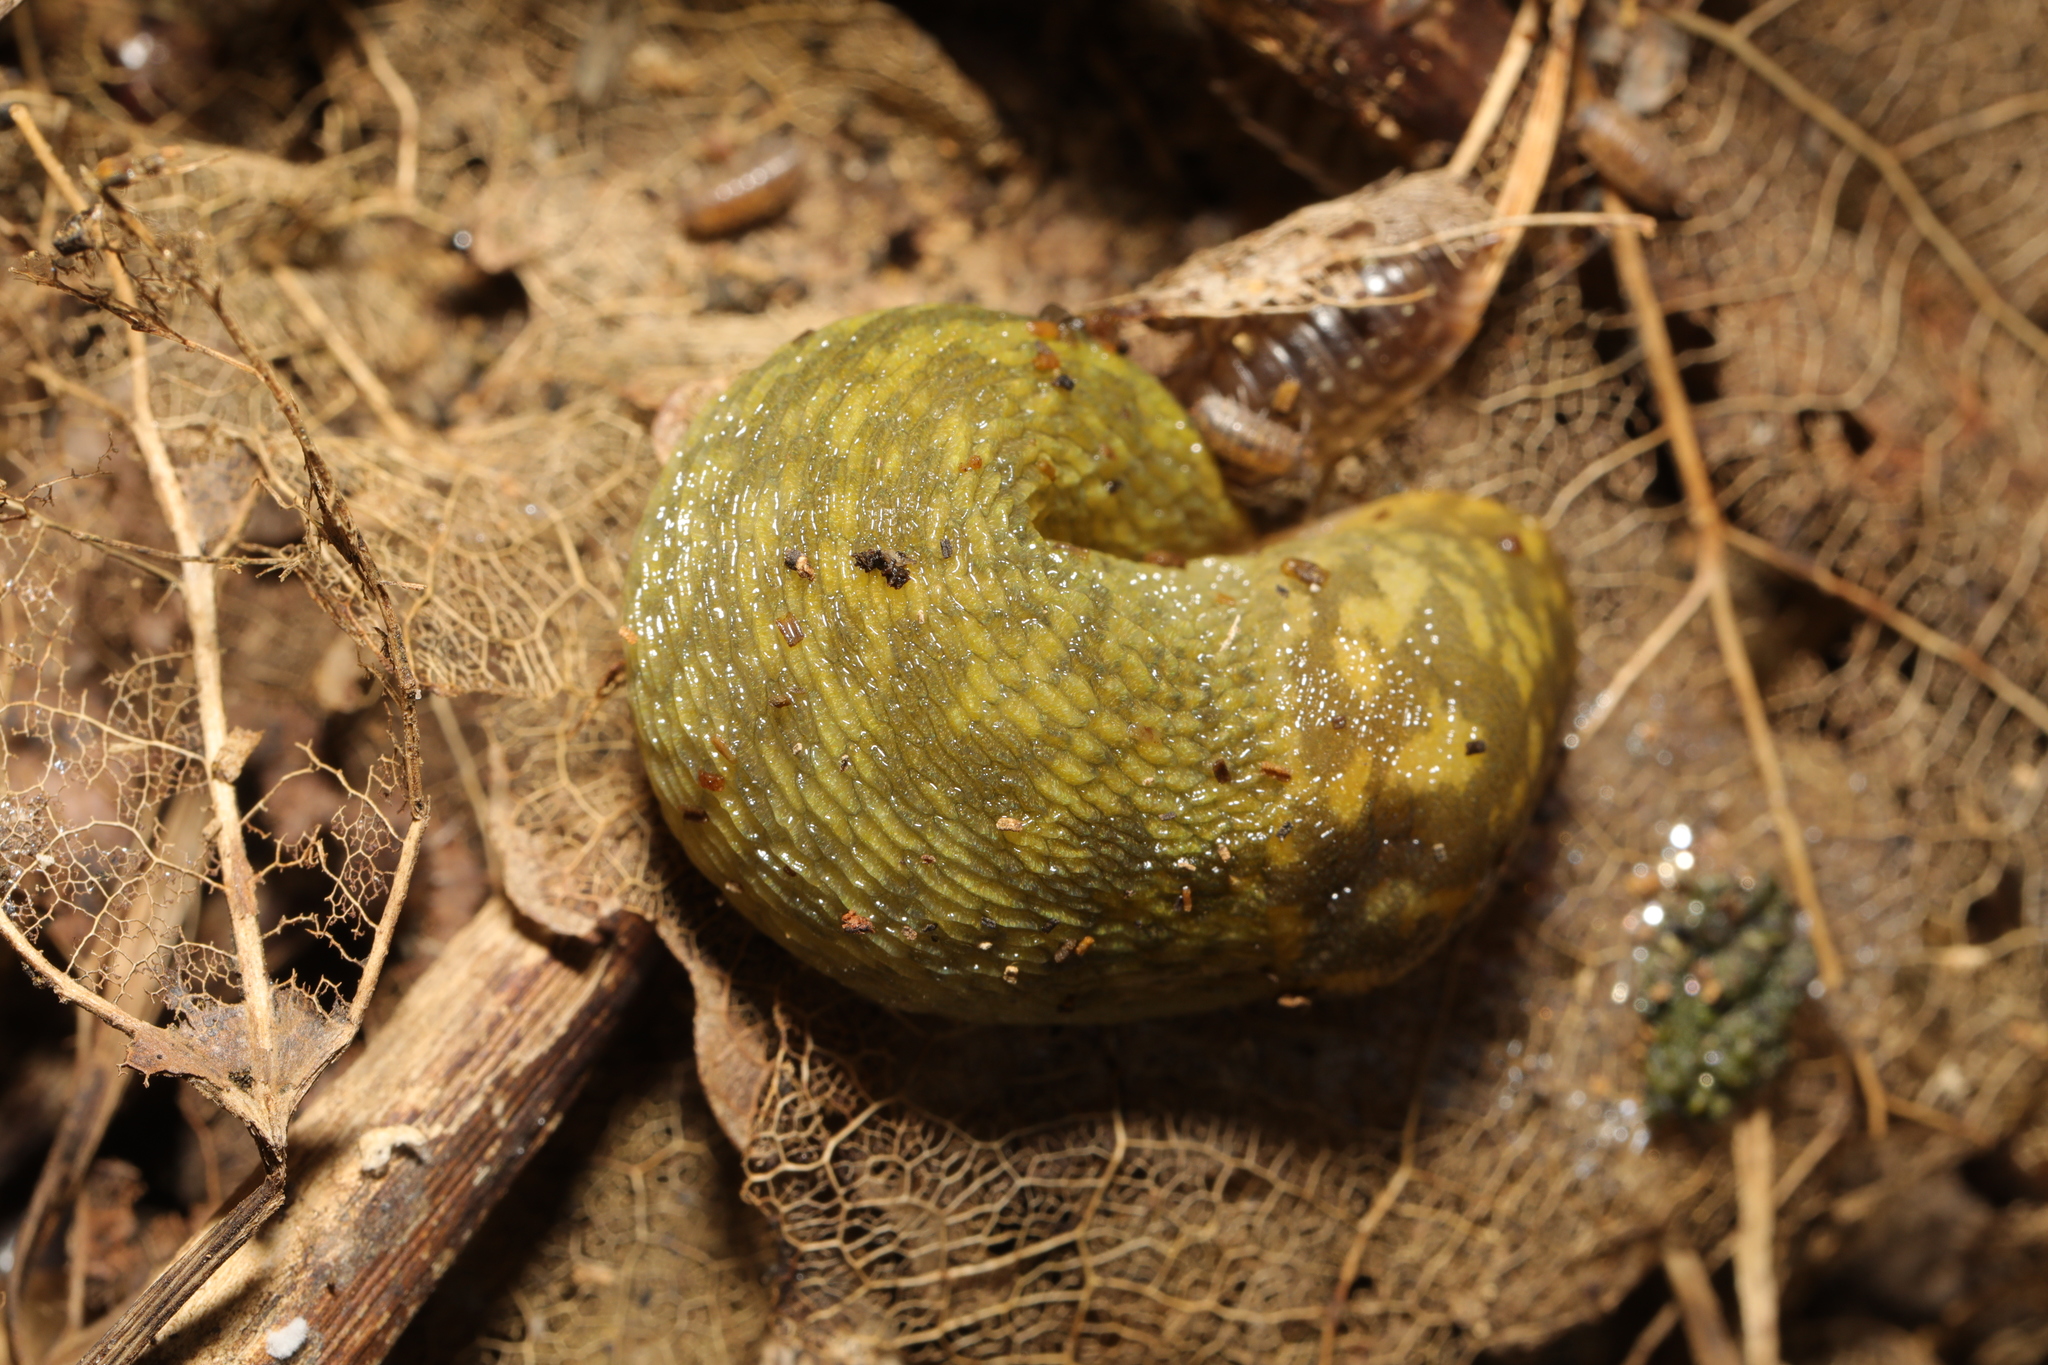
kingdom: Animalia
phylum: Mollusca
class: Gastropoda
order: Stylommatophora
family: Limacidae
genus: Limacus
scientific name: Limacus maculatus
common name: Irish yellow slug
